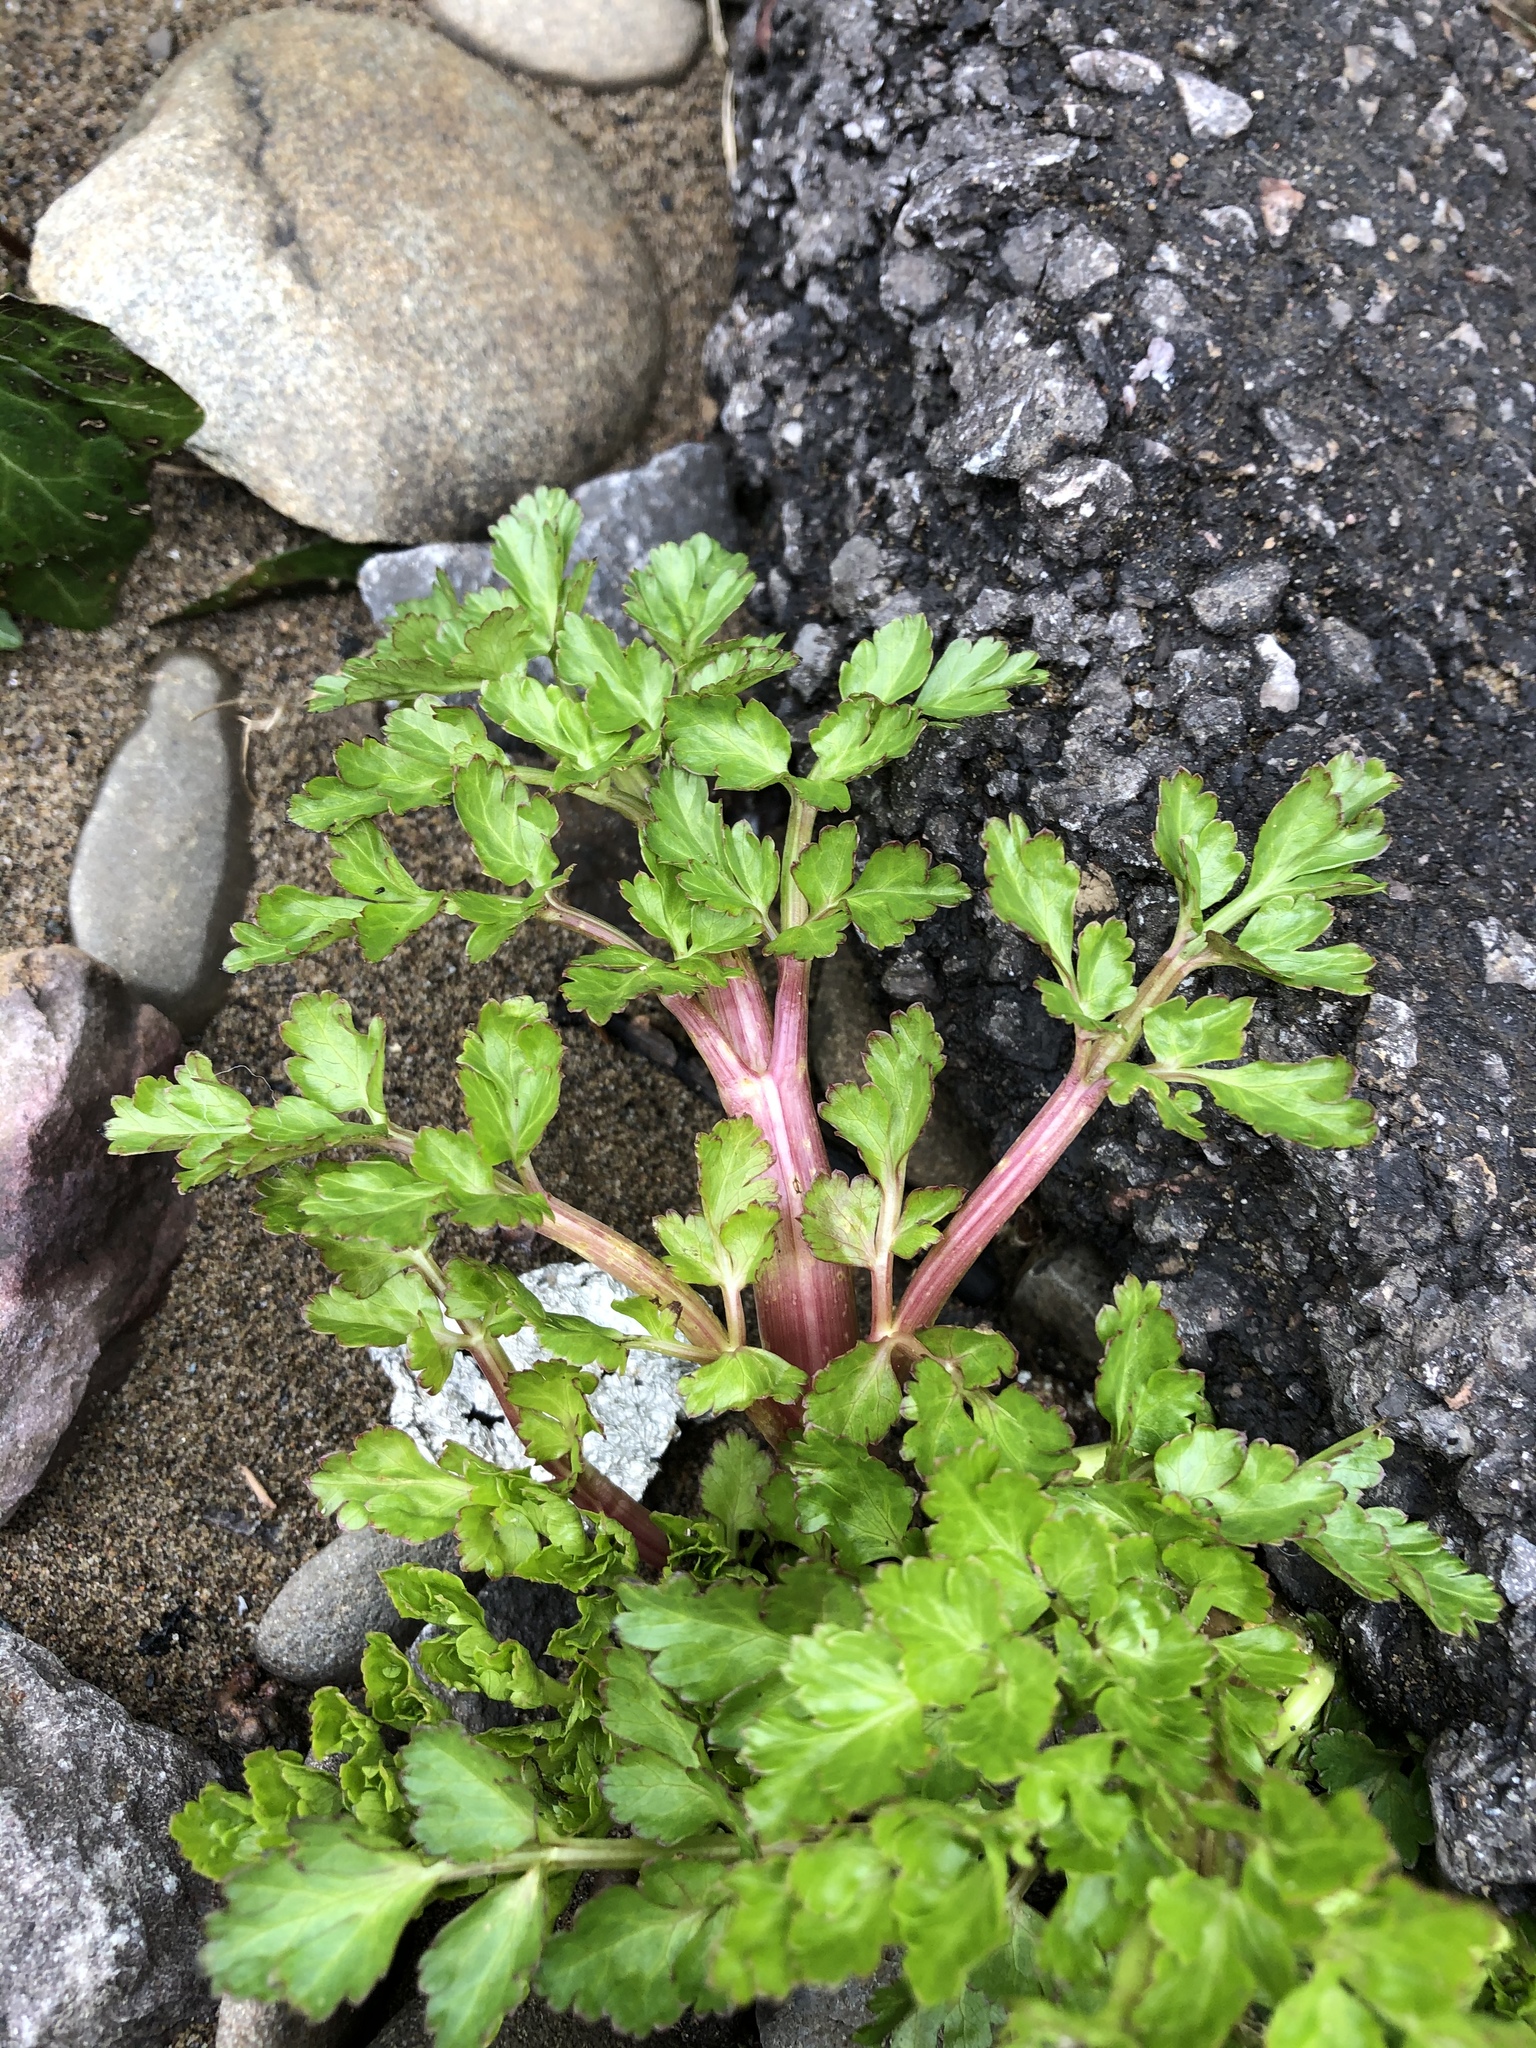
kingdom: Plantae
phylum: Tracheophyta
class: Magnoliopsida
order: Apiales
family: Apiaceae
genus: Oenanthe
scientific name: Oenanthe crocata
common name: Hemlock water-dropwort
